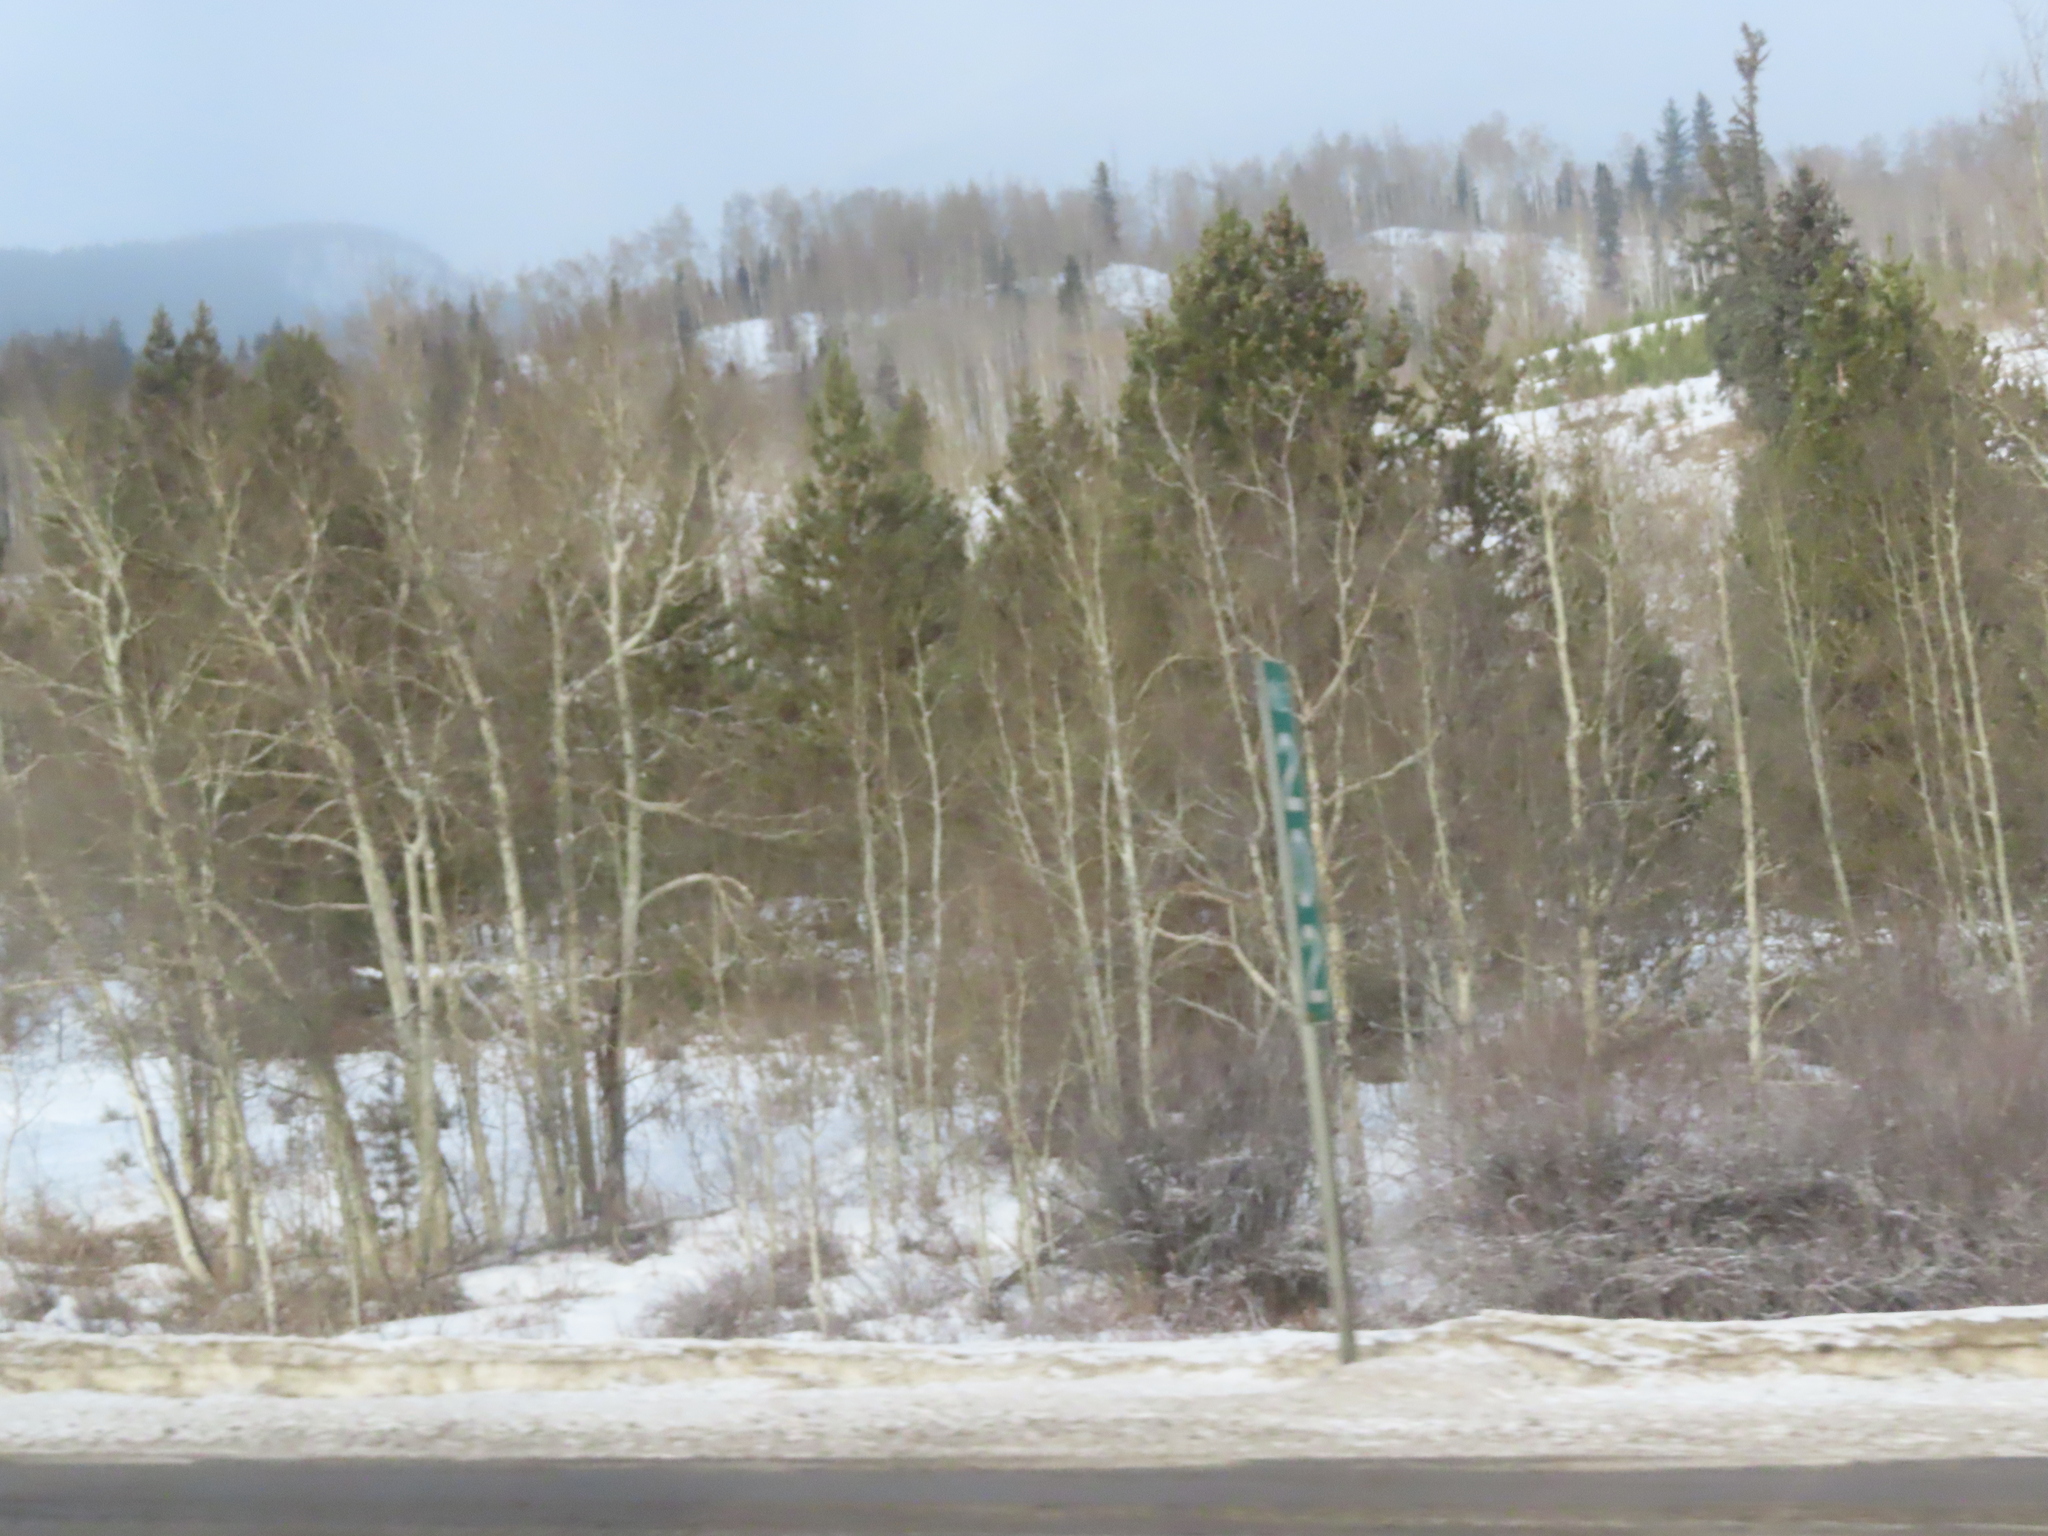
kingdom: Plantae
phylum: Tracheophyta
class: Magnoliopsida
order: Malpighiales
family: Salicaceae
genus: Populus
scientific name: Populus tremuloides
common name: Quaking aspen
